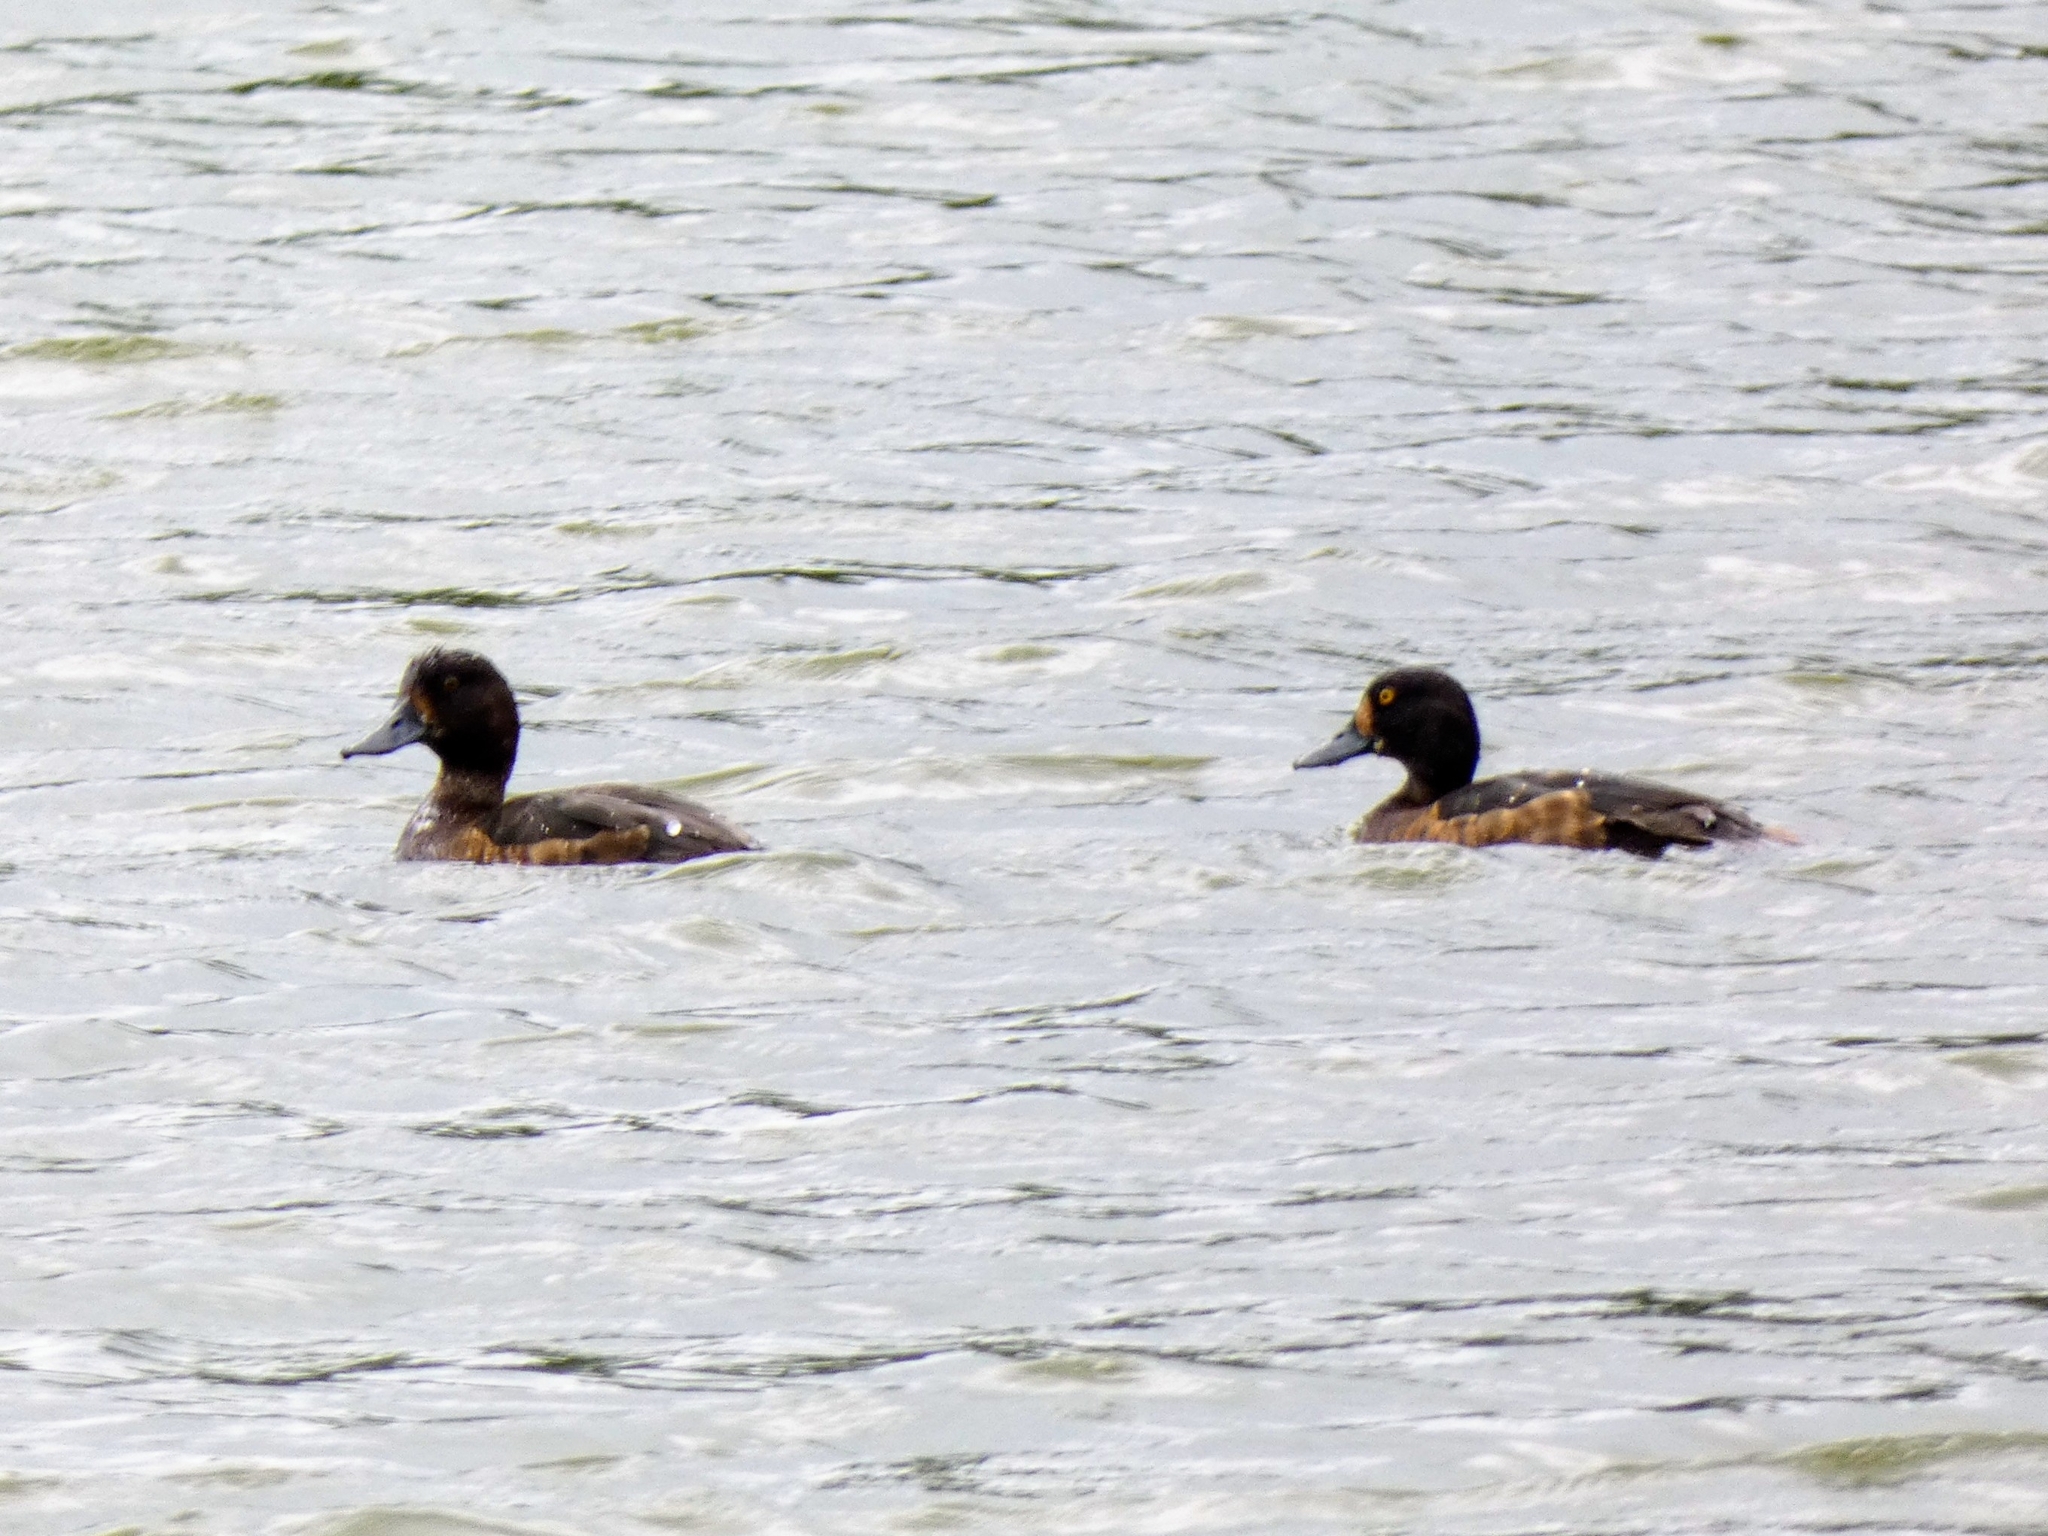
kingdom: Animalia
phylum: Chordata
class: Aves
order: Anseriformes
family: Anatidae
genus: Aythya
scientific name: Aythya fuligula
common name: Tufted duck
